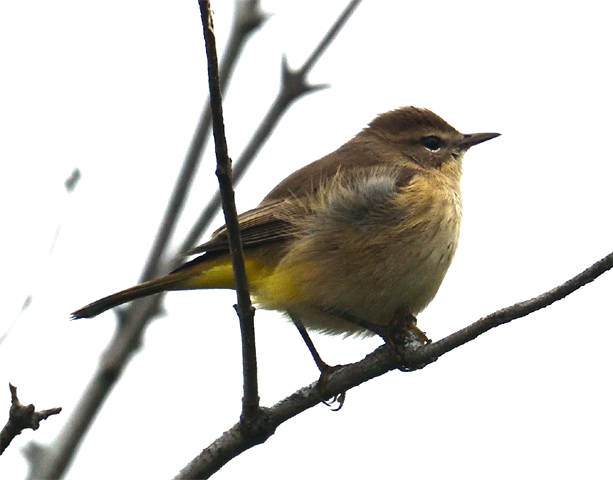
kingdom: Animalia
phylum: Chordata
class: Aves
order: Passeriformes
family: Parulidae
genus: Setophaga
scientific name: Setophaga palmarum
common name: Palm warbler
